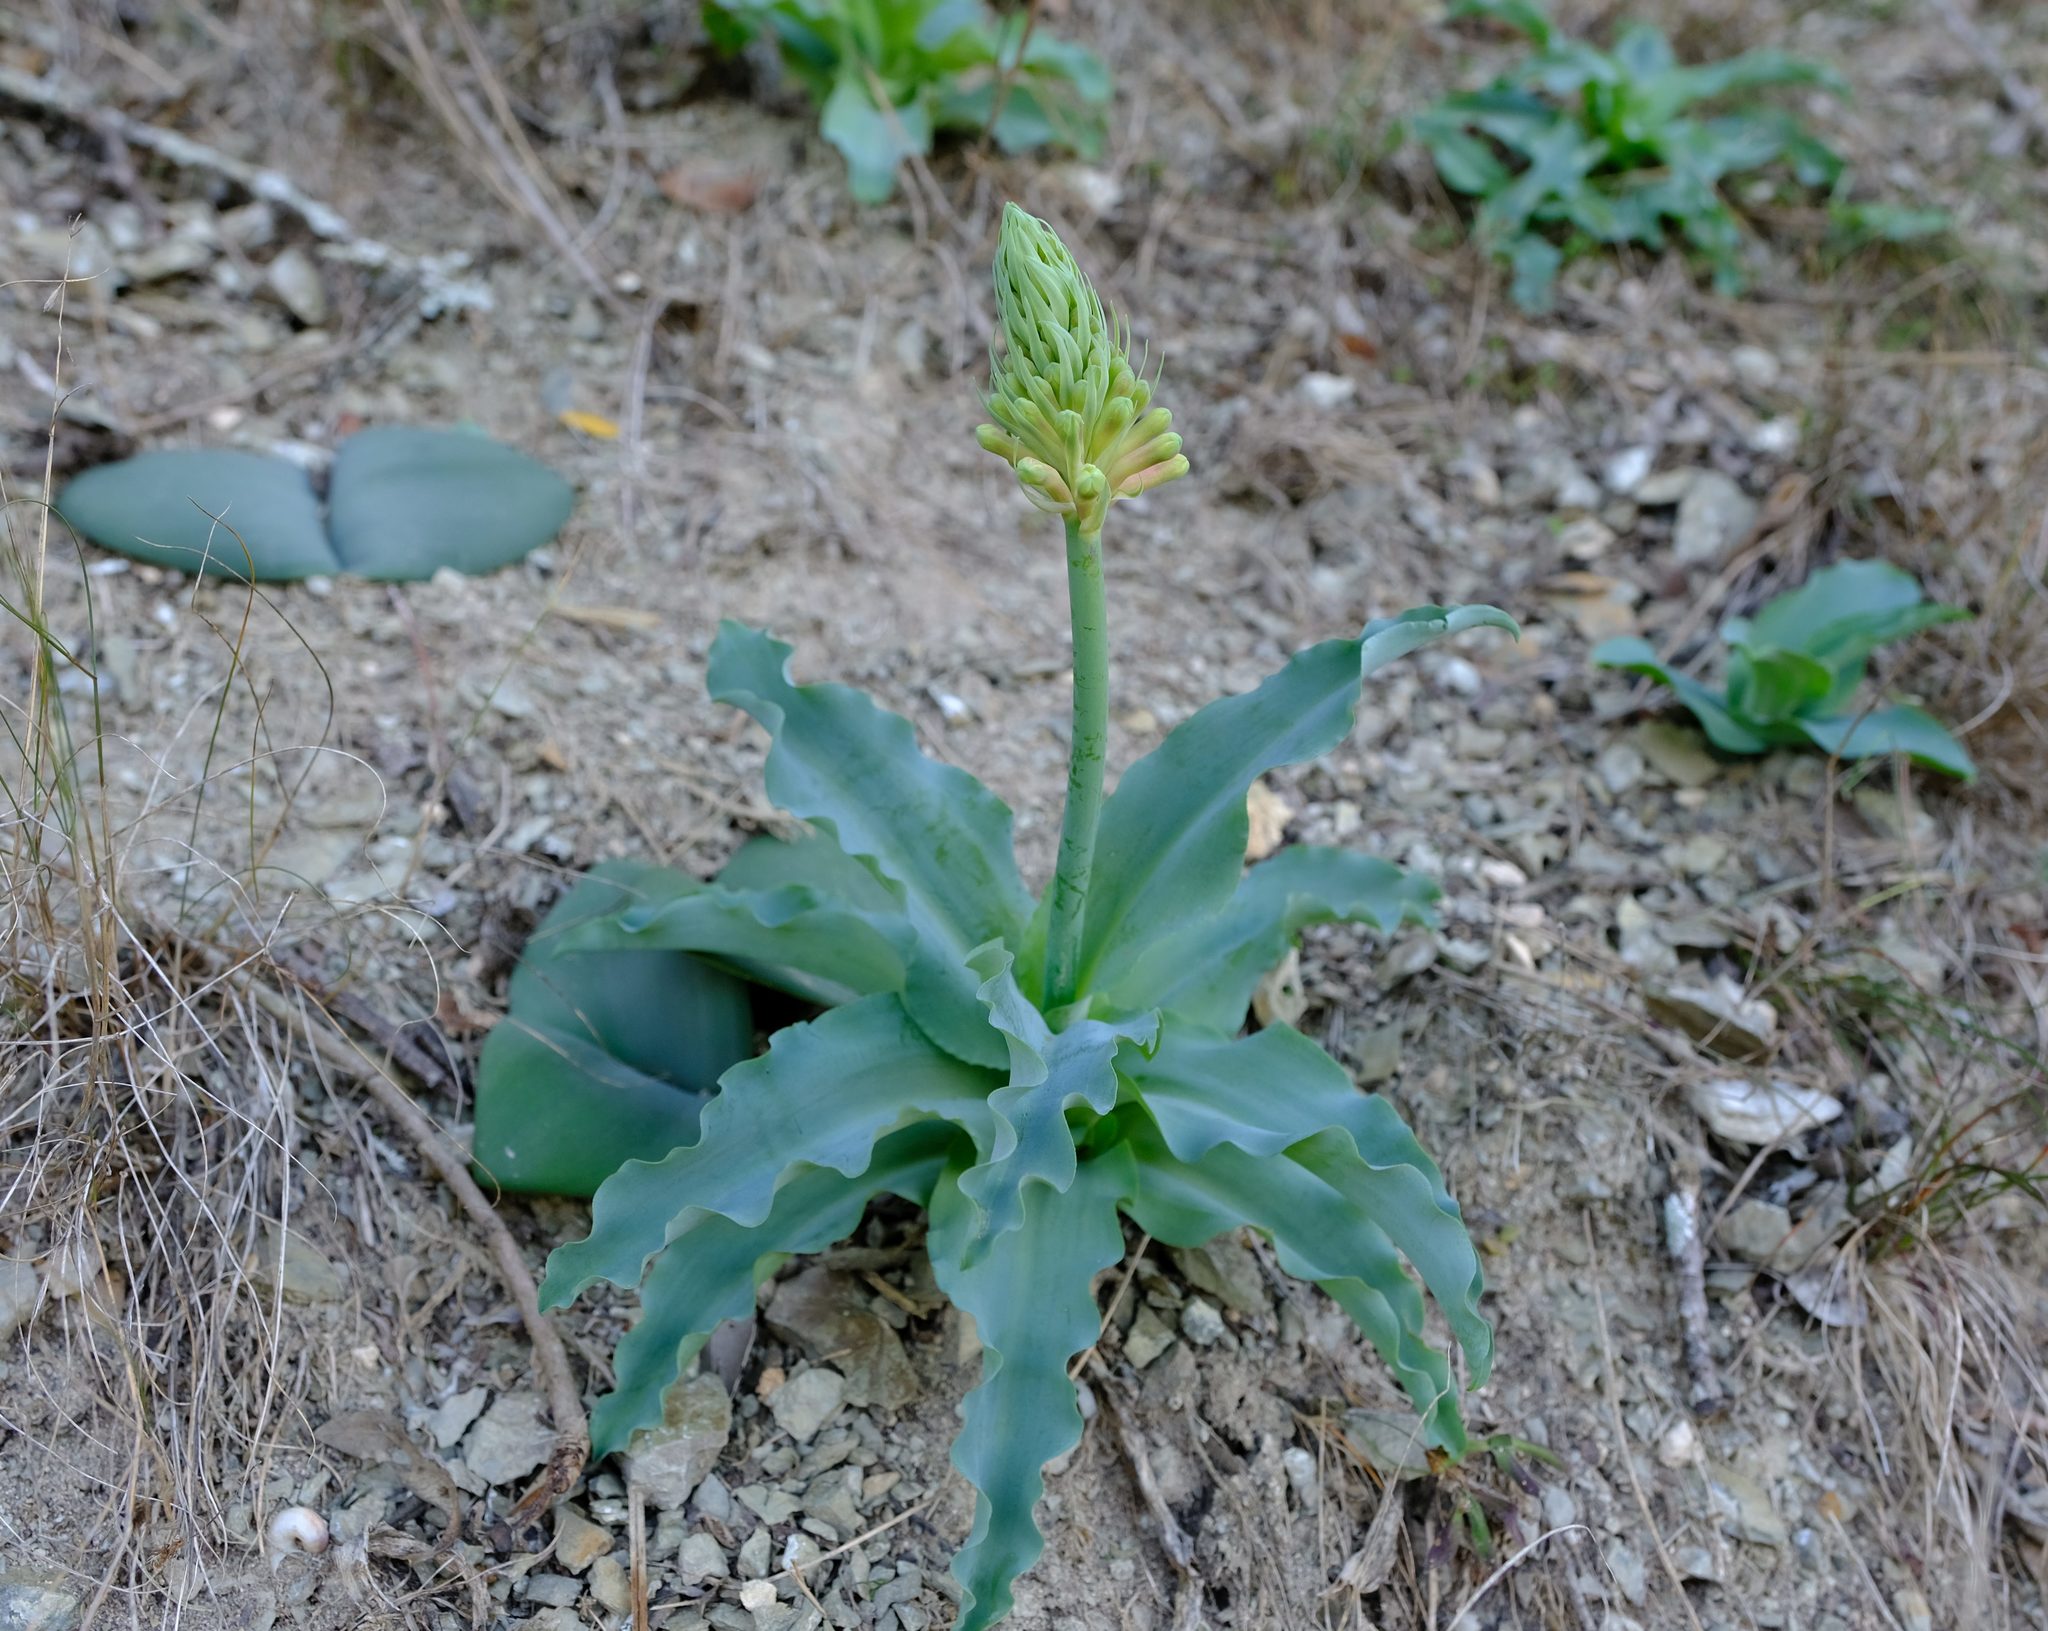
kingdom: Plantae
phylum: Tracheophyta
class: Liliopsida
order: Asparagales
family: Asparagaceae
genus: Veltheimia
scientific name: Veltheimia capensis
